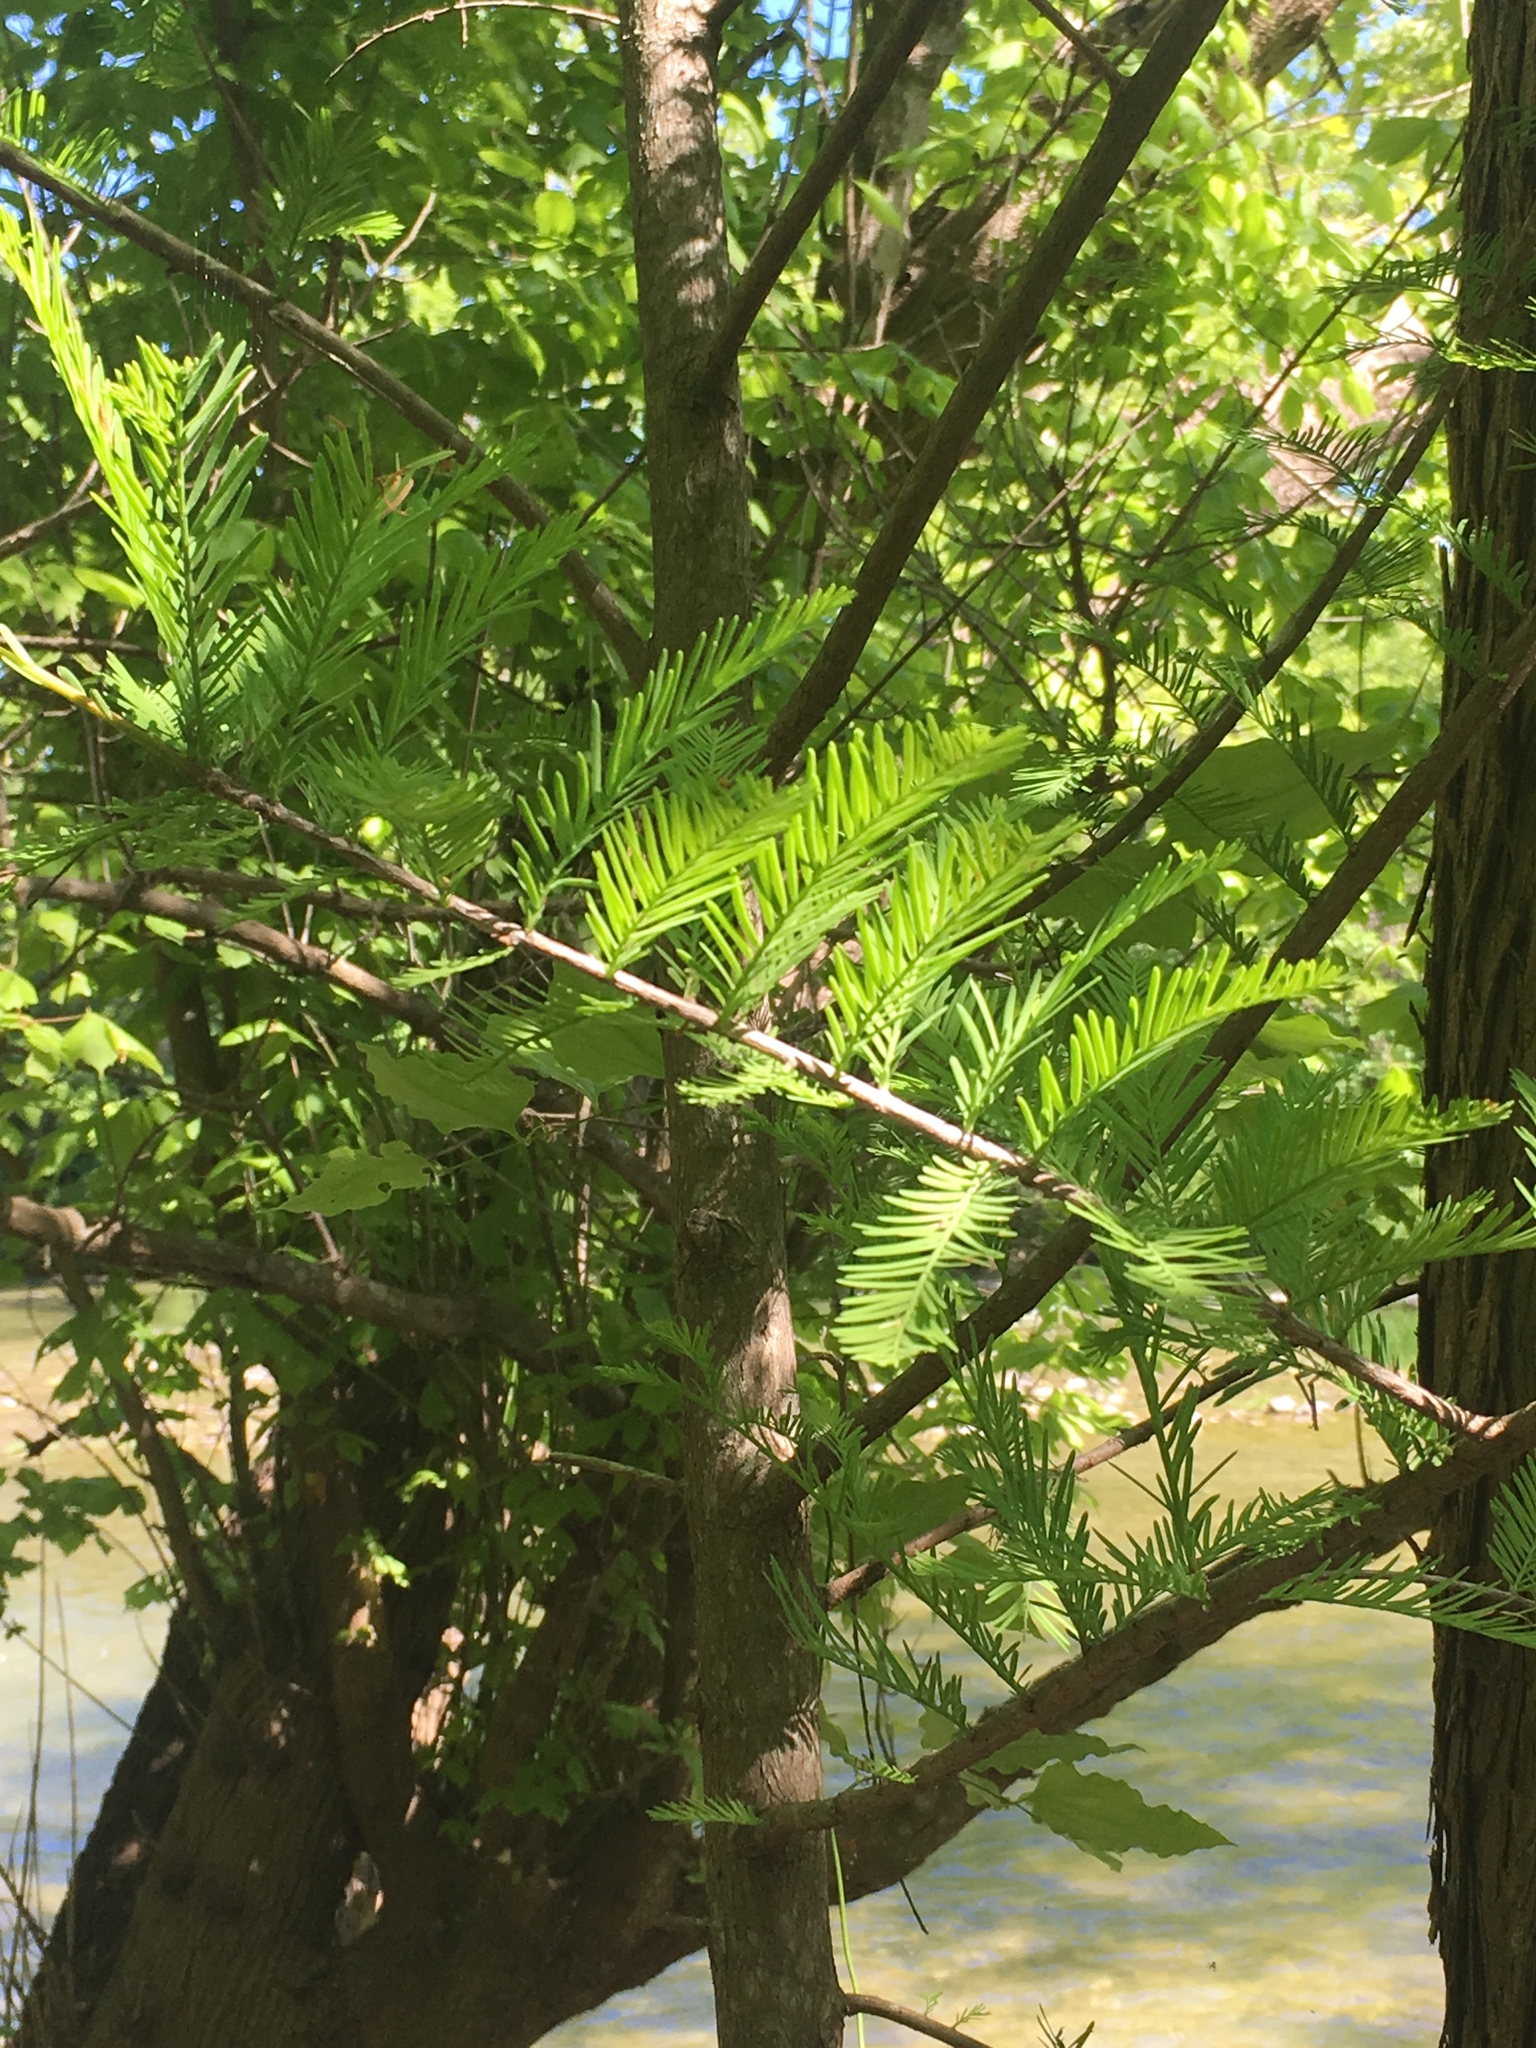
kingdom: Plantae
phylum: Tracheophyta
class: Pinopsida
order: Pinales
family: Cupressaceae
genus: Taxodium
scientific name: Taxodium distichum
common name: Bald cypress
